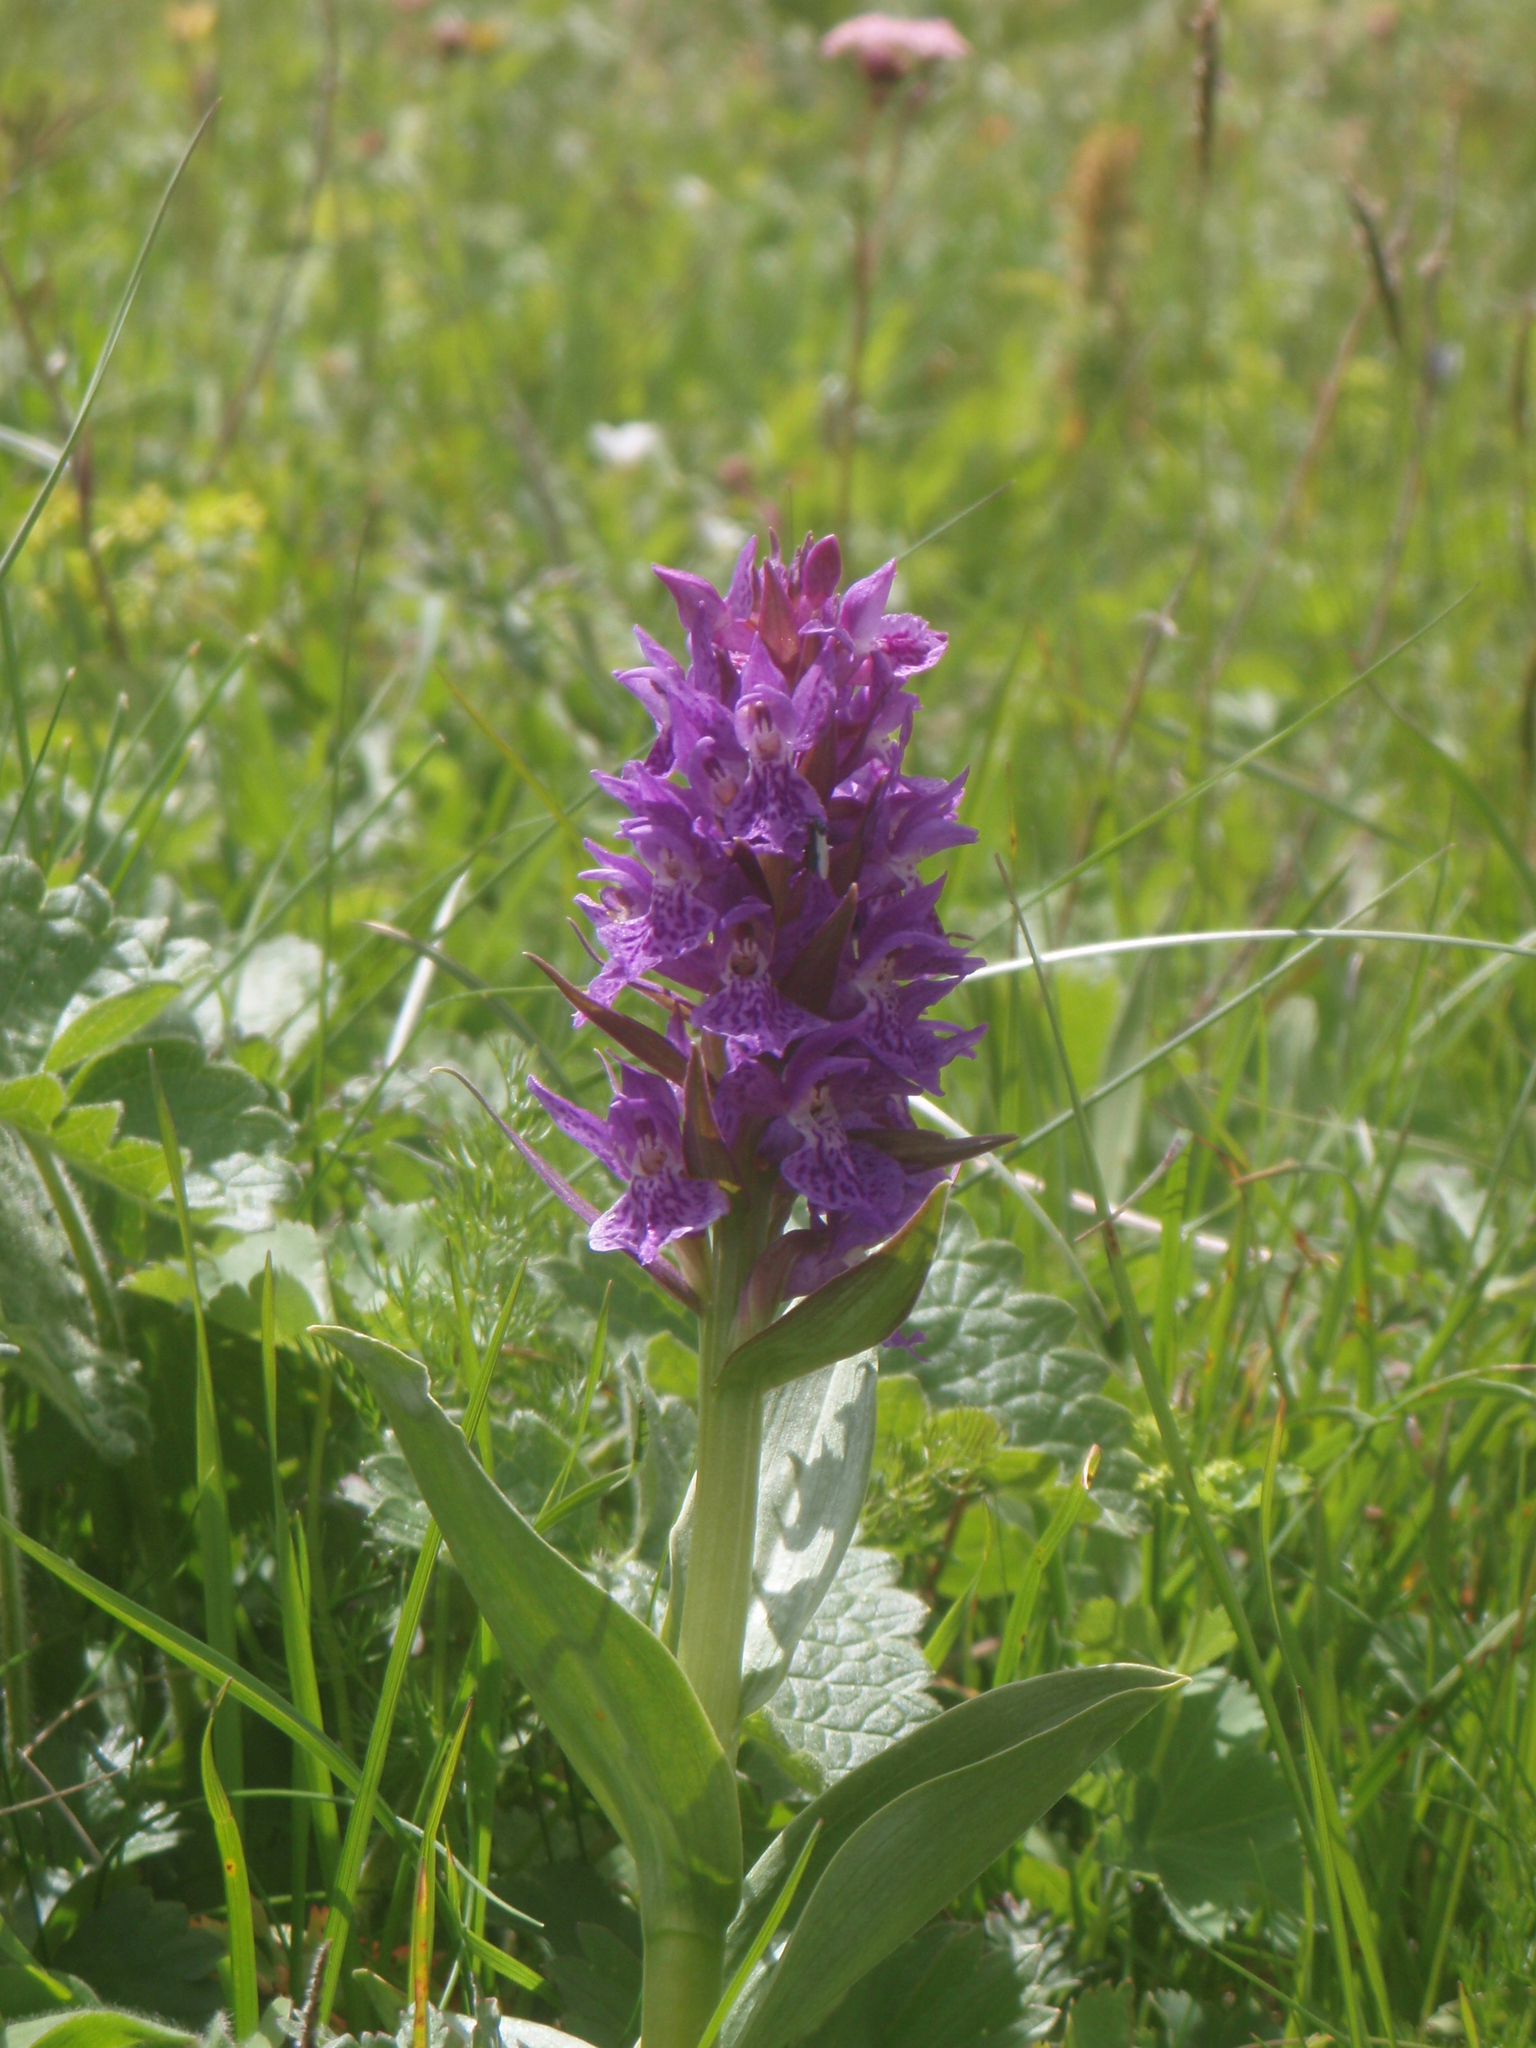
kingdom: Plantae
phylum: Tracheophyta
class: Liliopsida
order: Asparagales
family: Orchidaceae
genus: Dactylorhiza
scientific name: Dactylorhiza euxina
